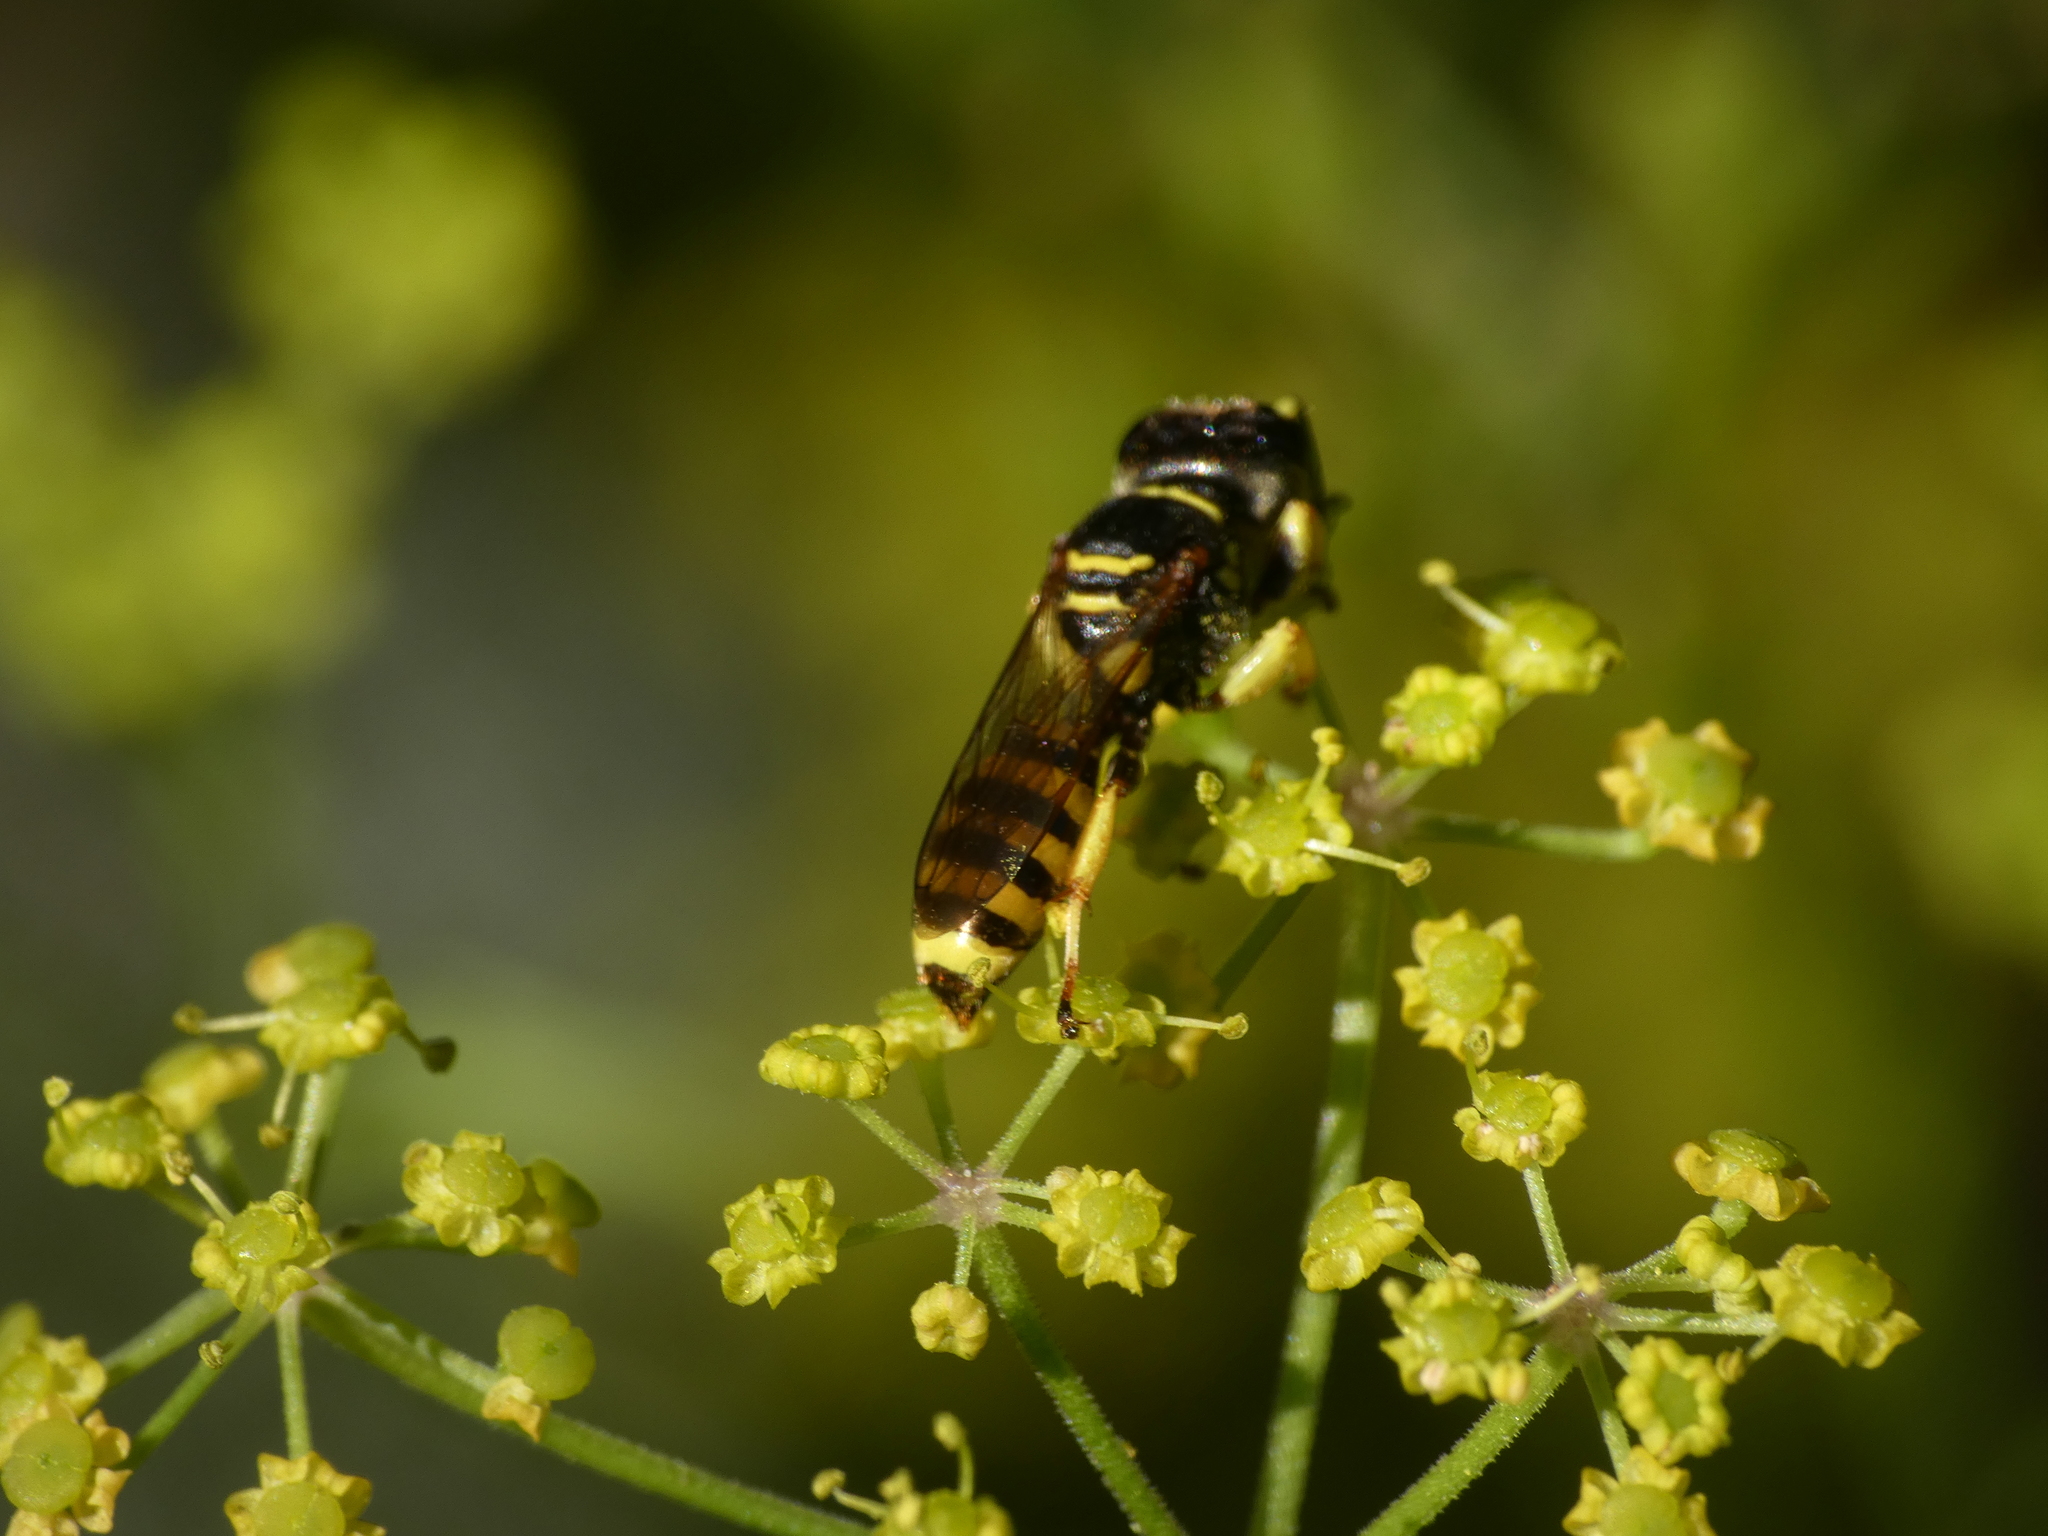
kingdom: Animalia
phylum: Arthropoda
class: Insecta
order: Hymenoptera
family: Crabronidae
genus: Lestica
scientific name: Lestica clypeata
